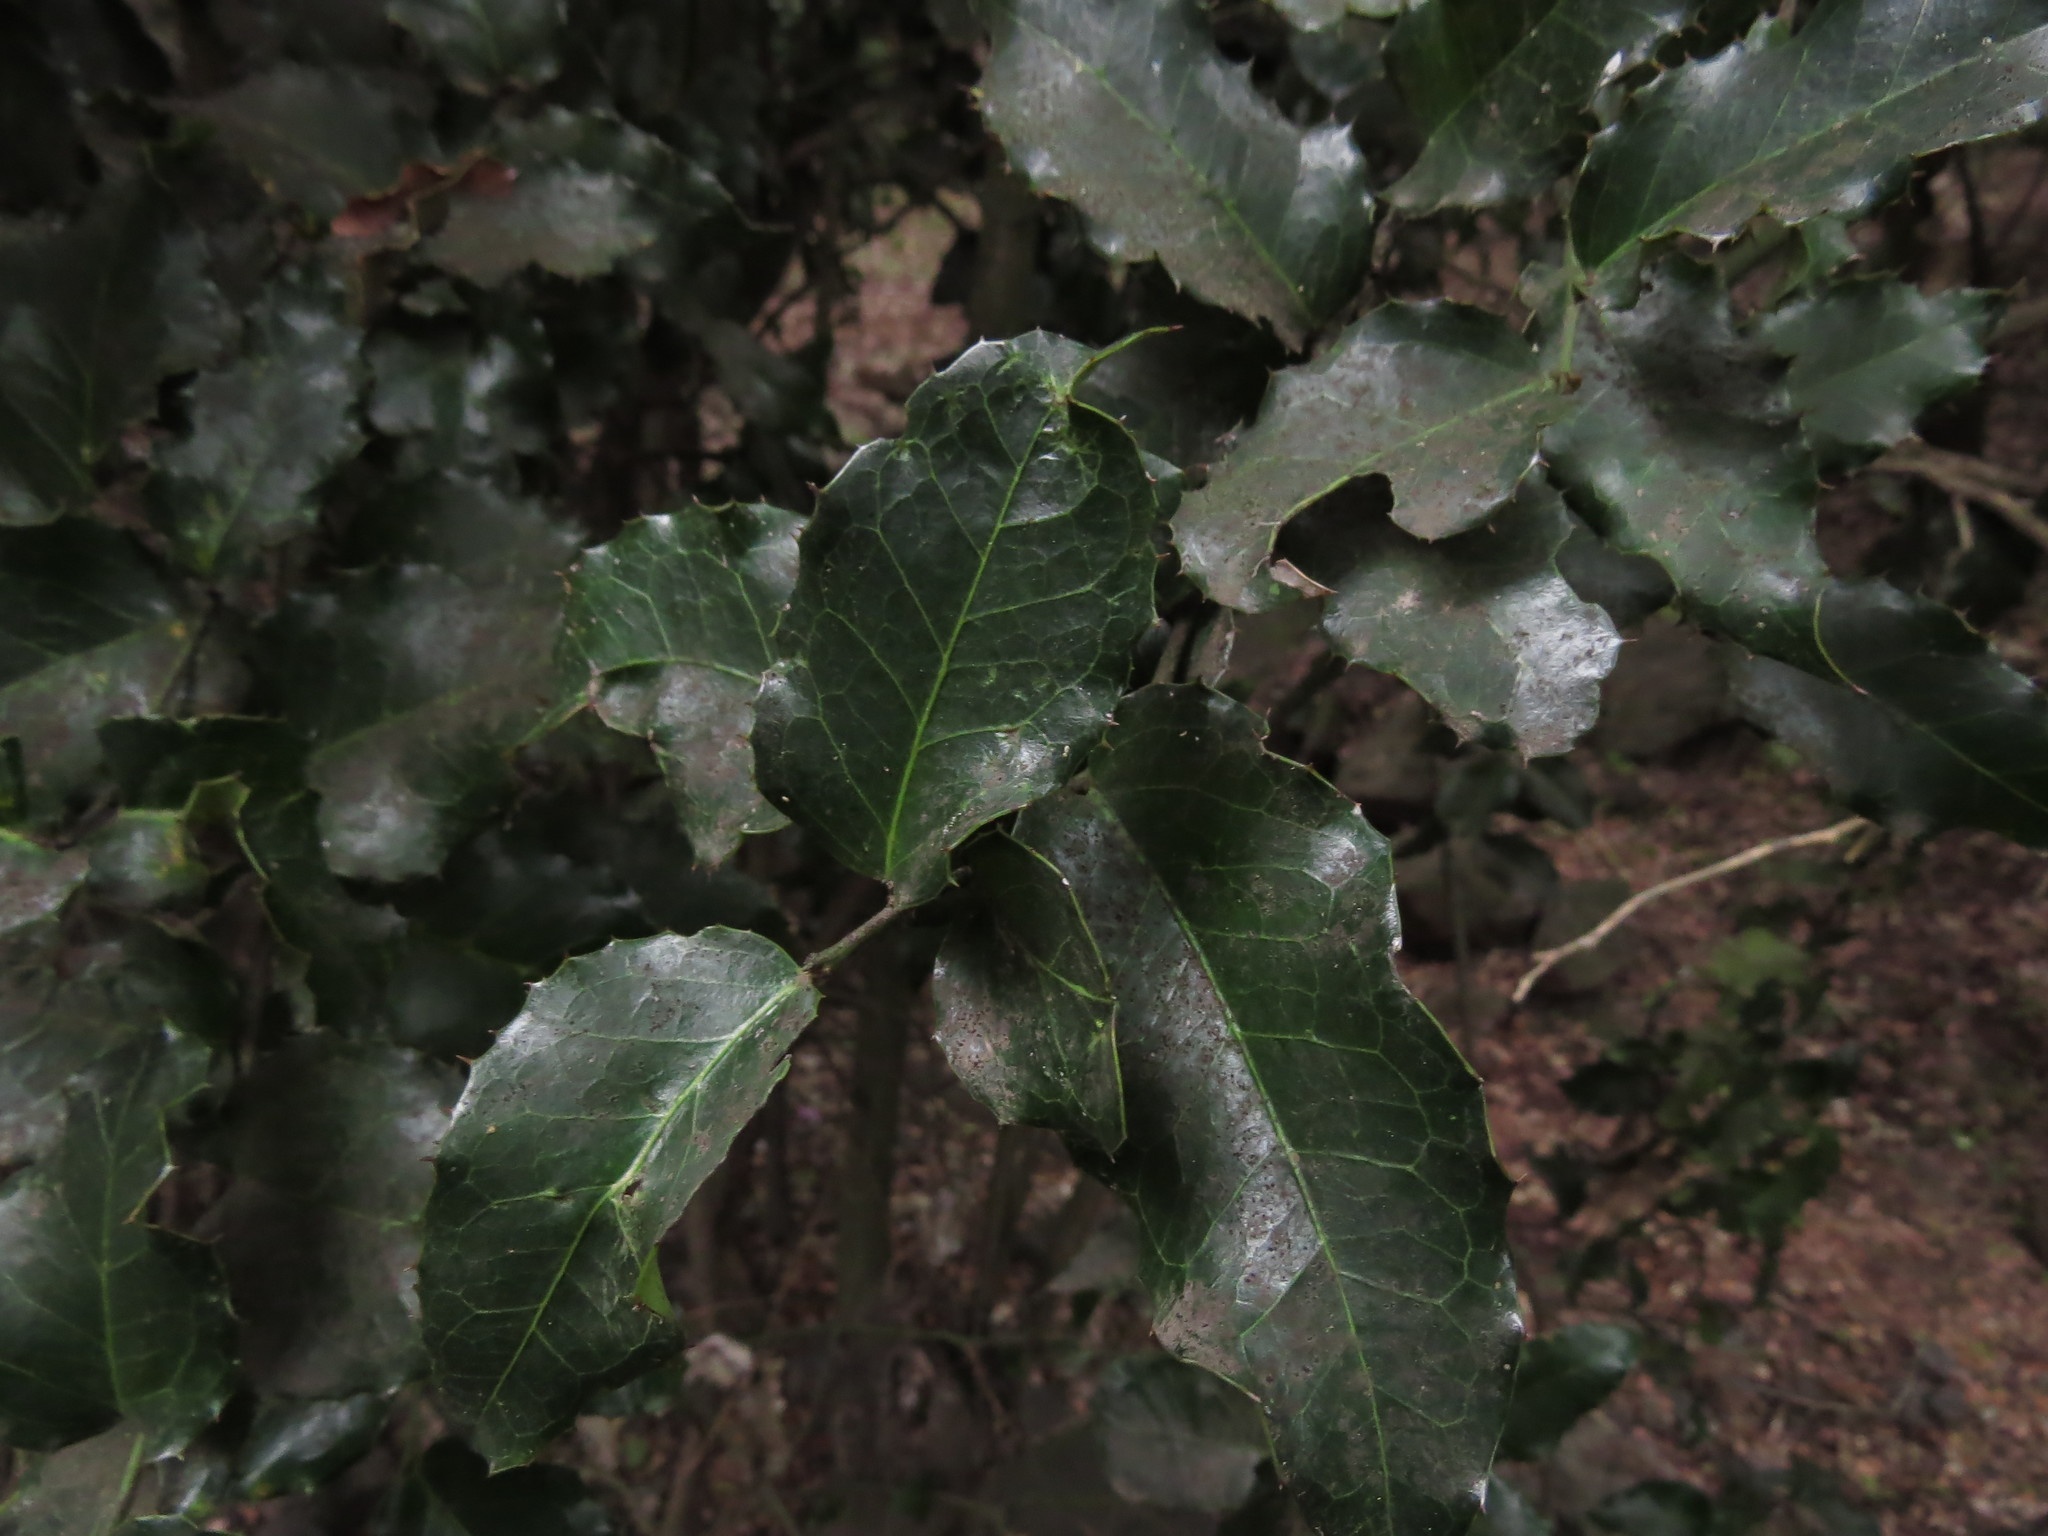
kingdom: Plantae
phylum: Tracheophyta
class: Magnoliopsida
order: Cardiopteridales
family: Cardiopteridaceae
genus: Citronella
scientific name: Citronella mucronata
